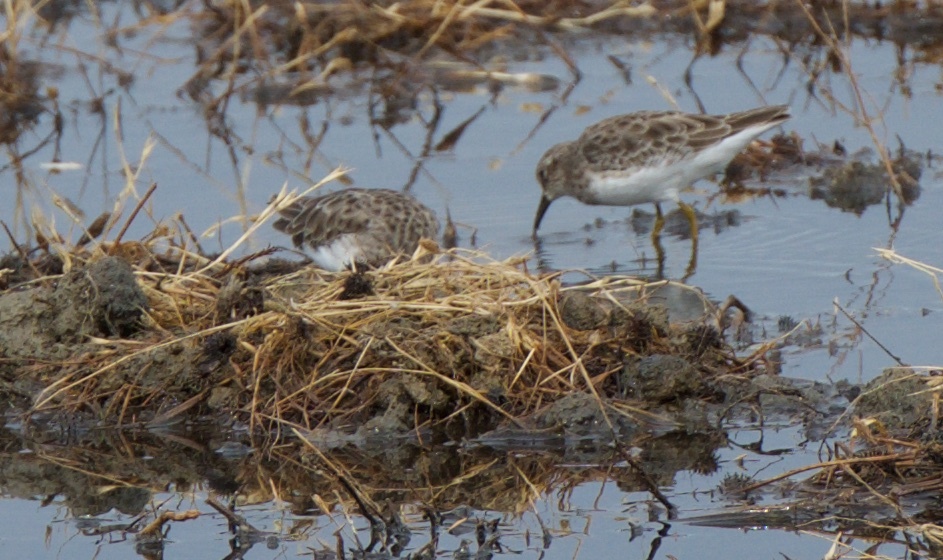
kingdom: Animalia
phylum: Chordata
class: Aves
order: Charadriiformes
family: Scolopacidae
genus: Calidris
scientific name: Calidris minutilla
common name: Least sandpiper
